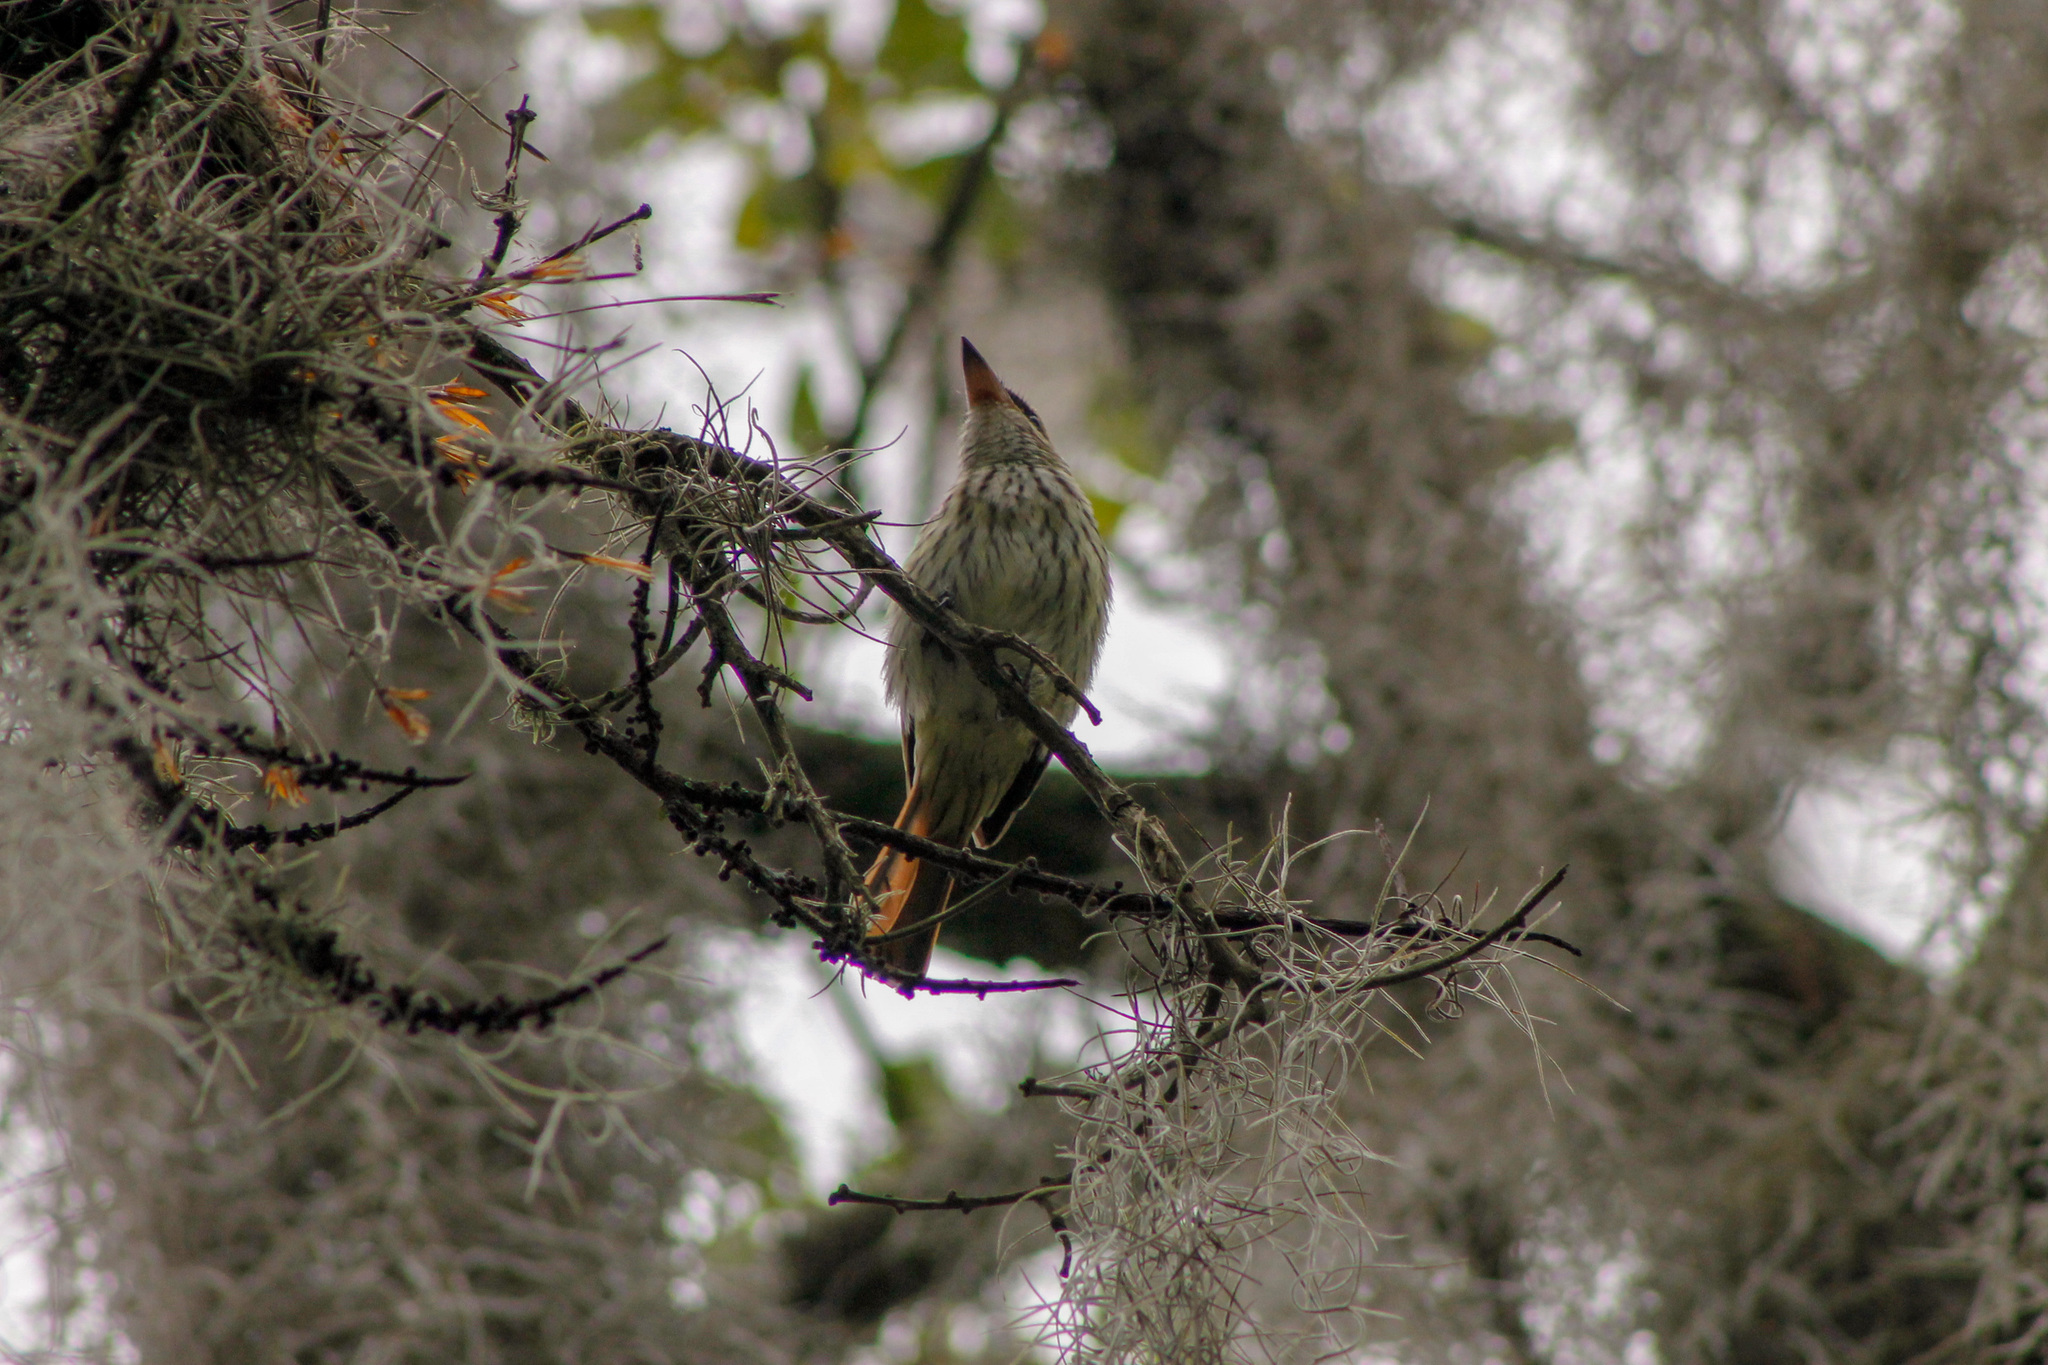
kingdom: Animalia
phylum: Chordata
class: Aves
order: Passeriformes
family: Tyrannidae
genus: Myiodynastes
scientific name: Myiodynastes maculatus
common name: Streaked flycatcher
